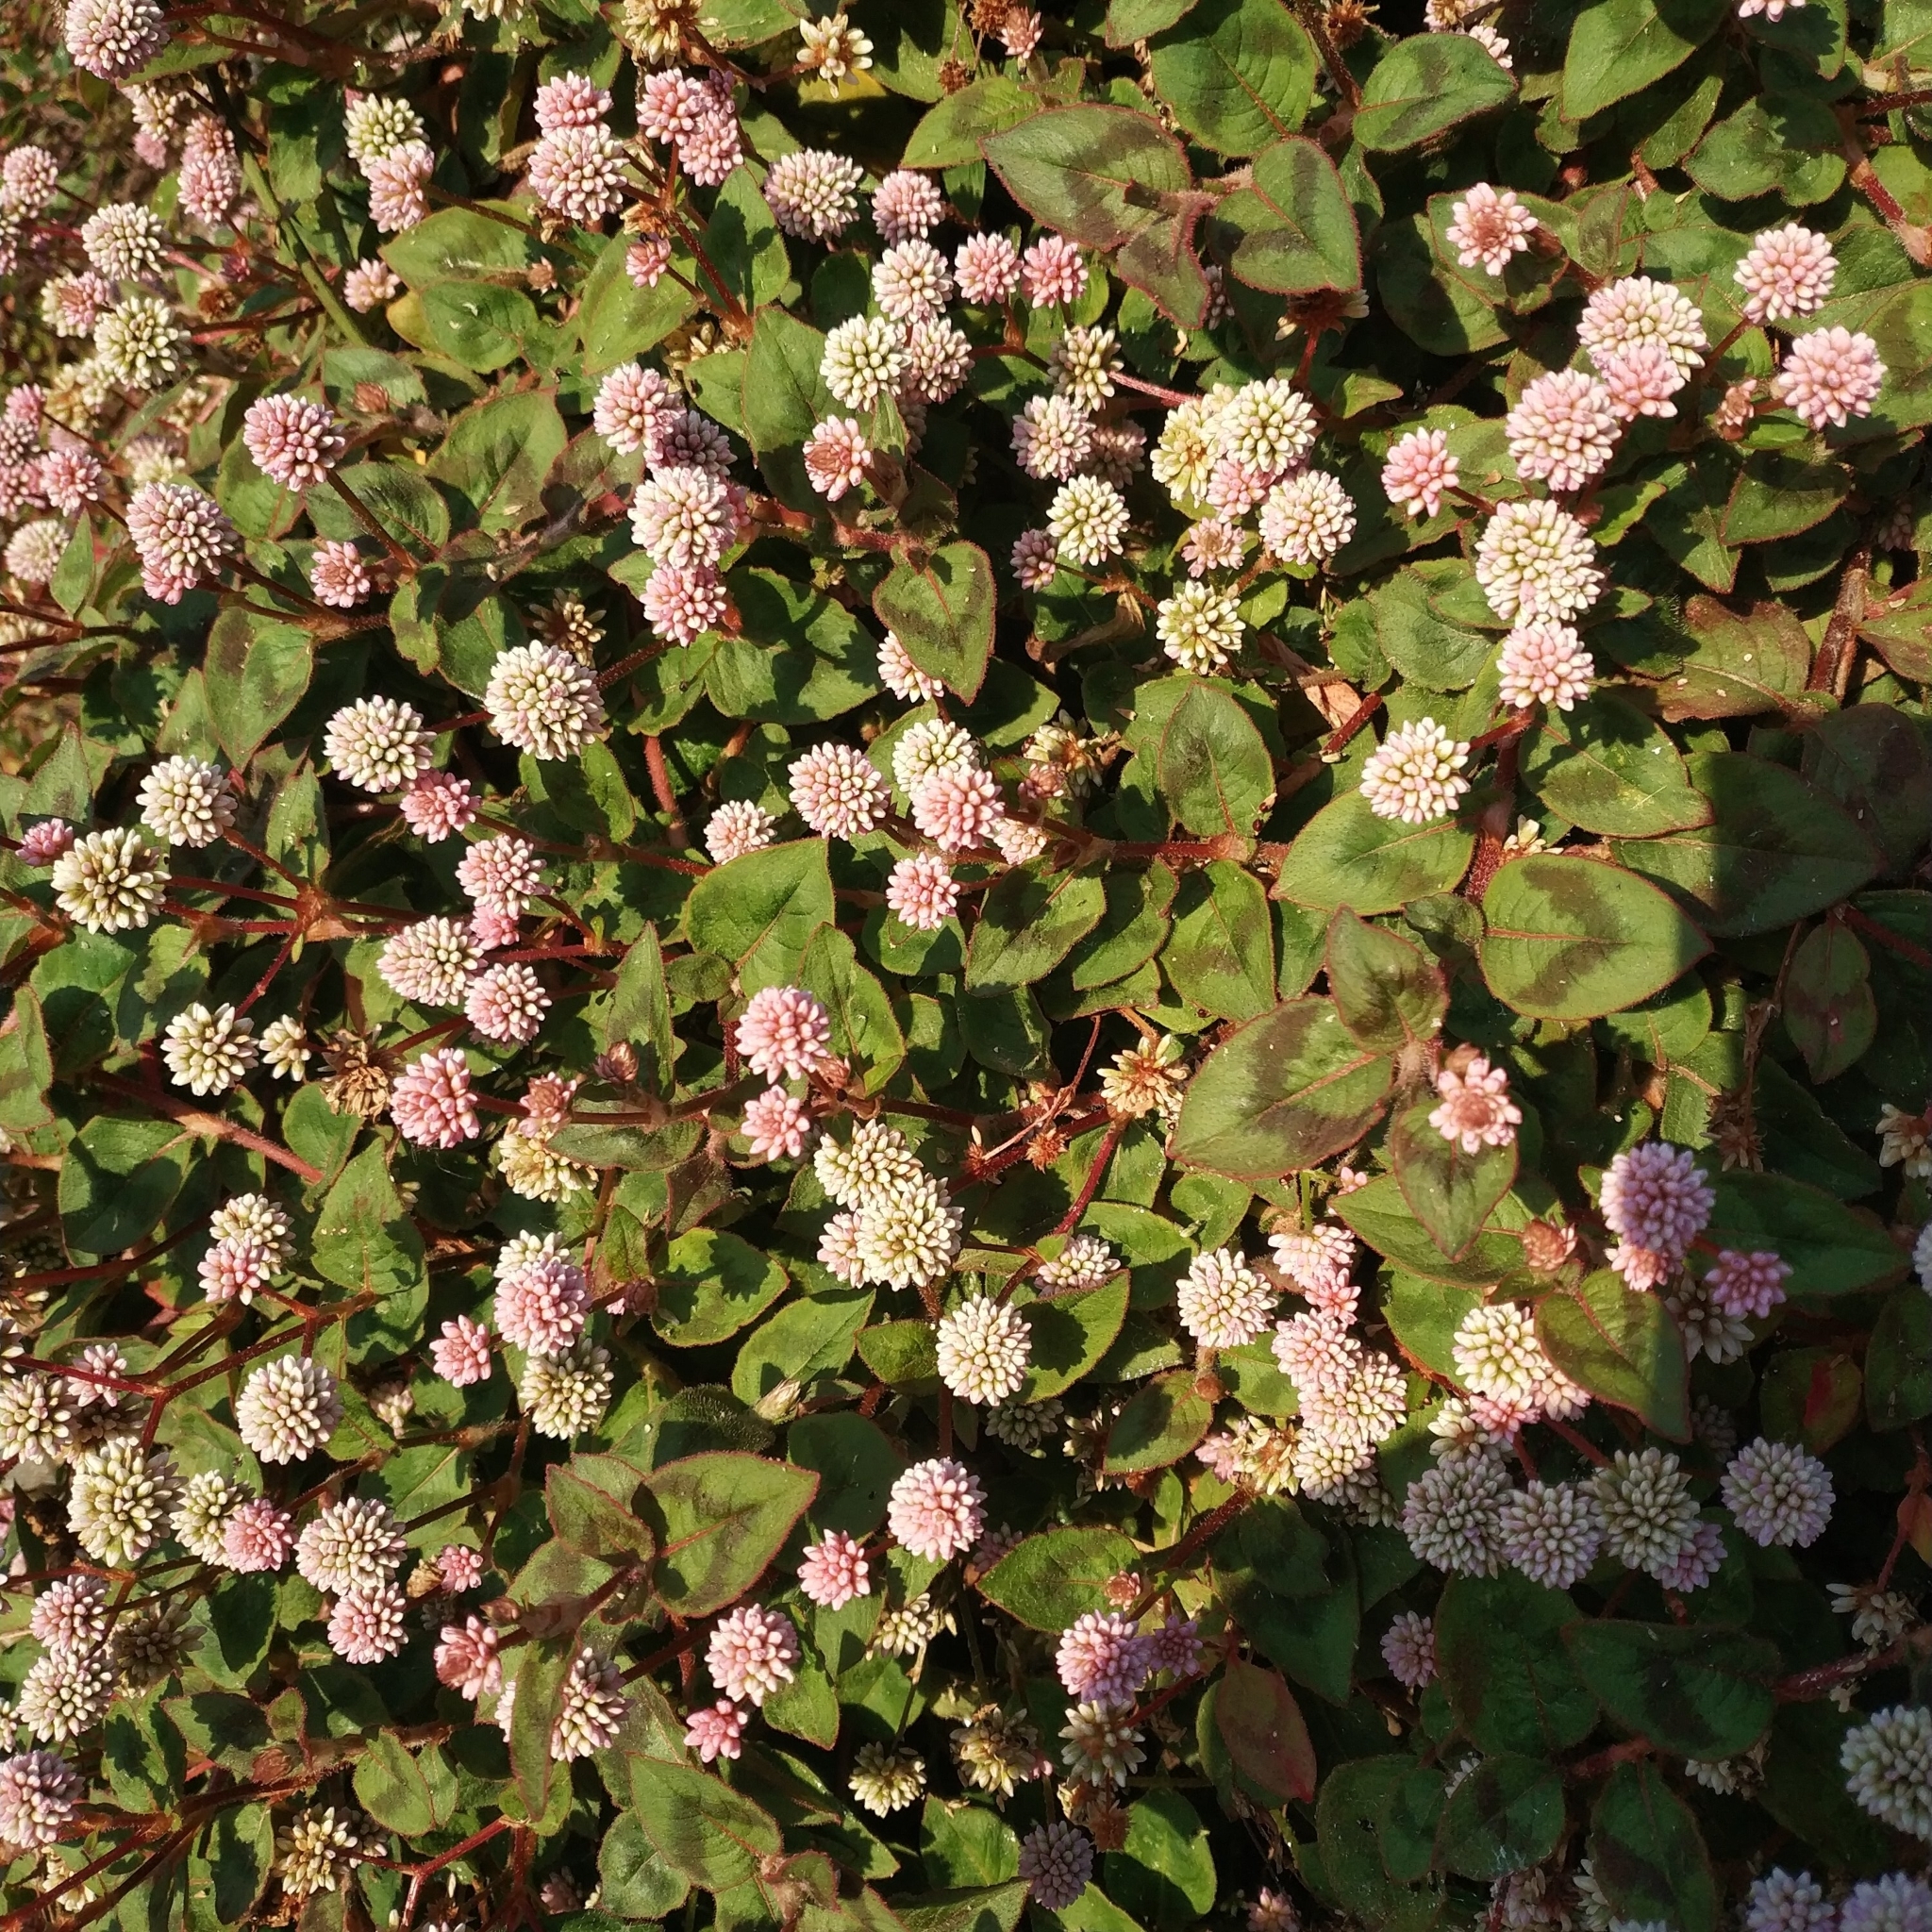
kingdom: Plantae
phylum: Tracheophyta
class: Magnoliopsida
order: Caryophyllales
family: Polygonaceae
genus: Persicaria
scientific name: Persicaria capitata
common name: Pinkhead smartweed
